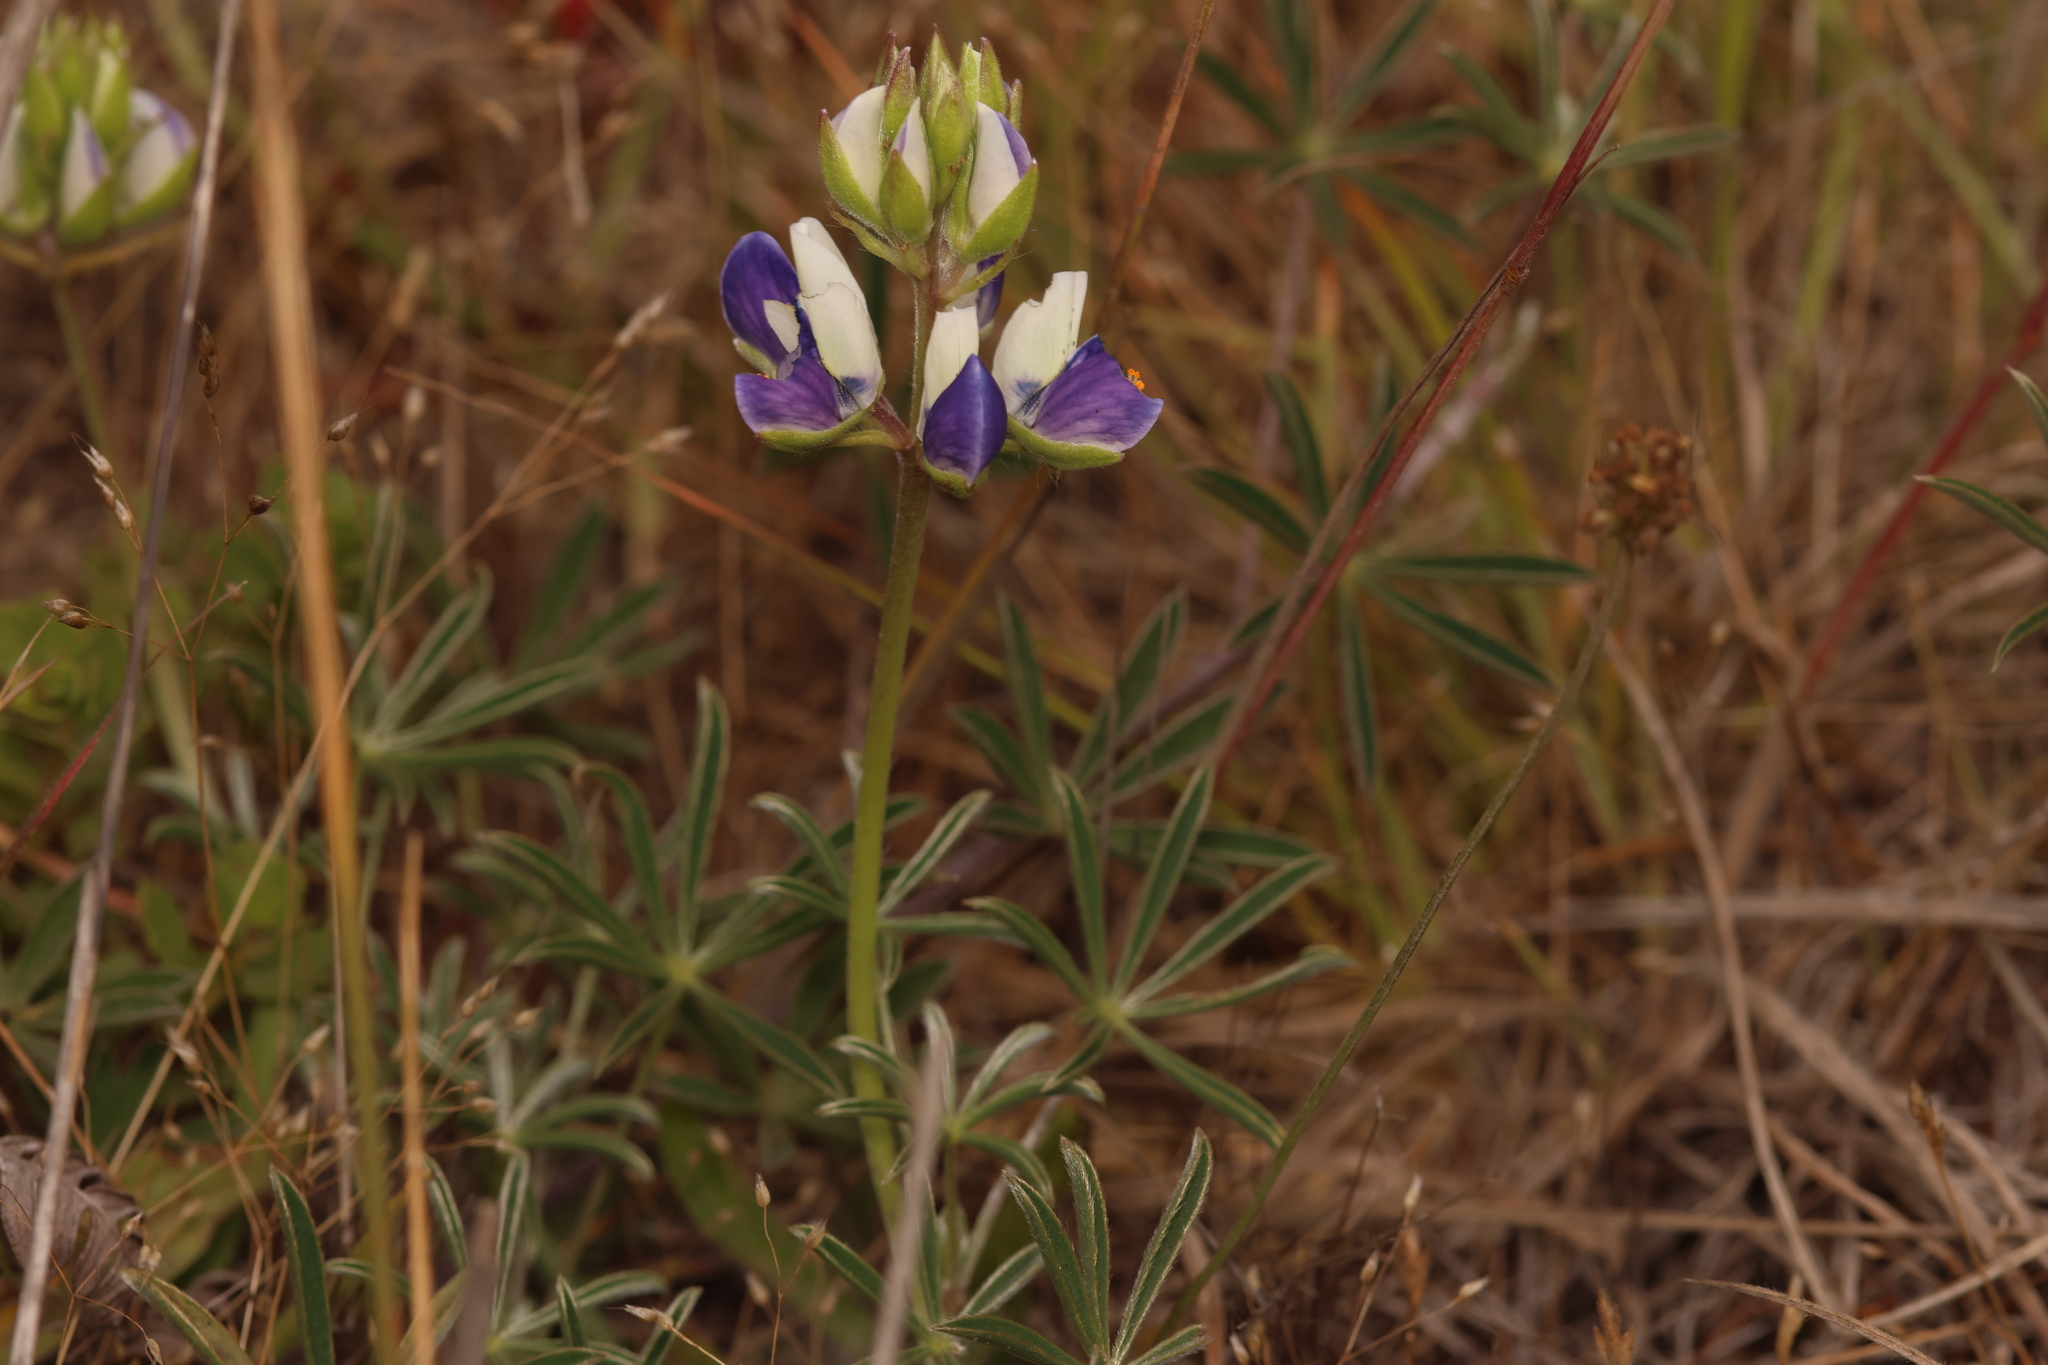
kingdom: Plantae
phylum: Tracheophyta
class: Magnoliopsida
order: Fabales
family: Fabaceae
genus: Lupinus
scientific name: Lupinus variicolor
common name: Lindley's varied lupine
